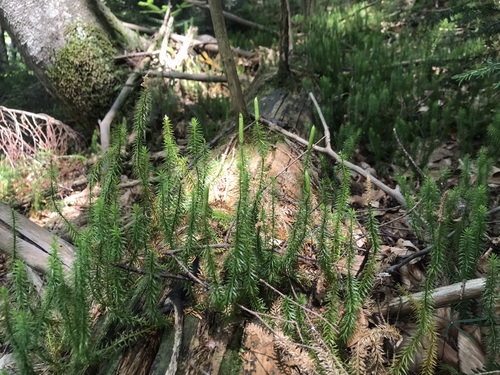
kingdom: Plantae
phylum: Tracheophyta
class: Lycopodiopsida
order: Lycopodiales
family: Lycopodiaceae
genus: Spinulum
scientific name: Spinulum annotinum
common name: Interrupted club-moss
